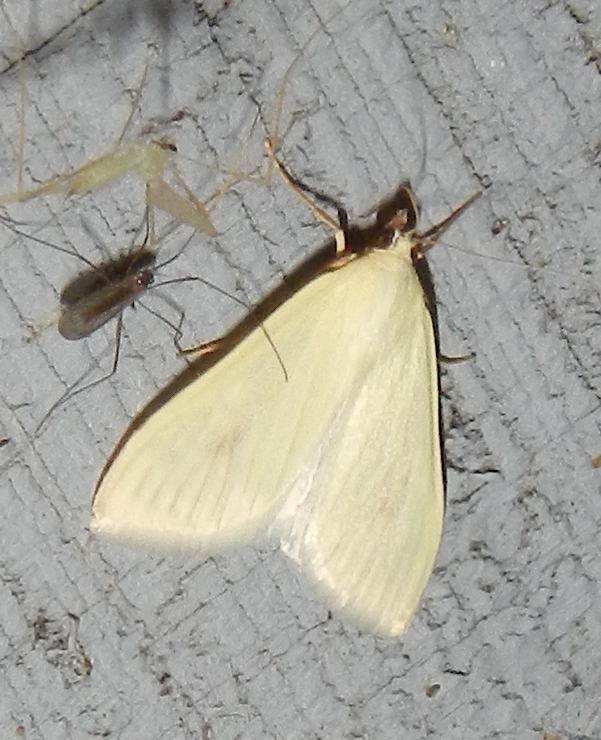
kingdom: Animalia
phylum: Arthropoda
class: Insecta
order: Lepidoptera
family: Crambidae
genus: Sitochroa
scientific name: Sitochroa palealis
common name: Greenish-yellow sitochroa moth
